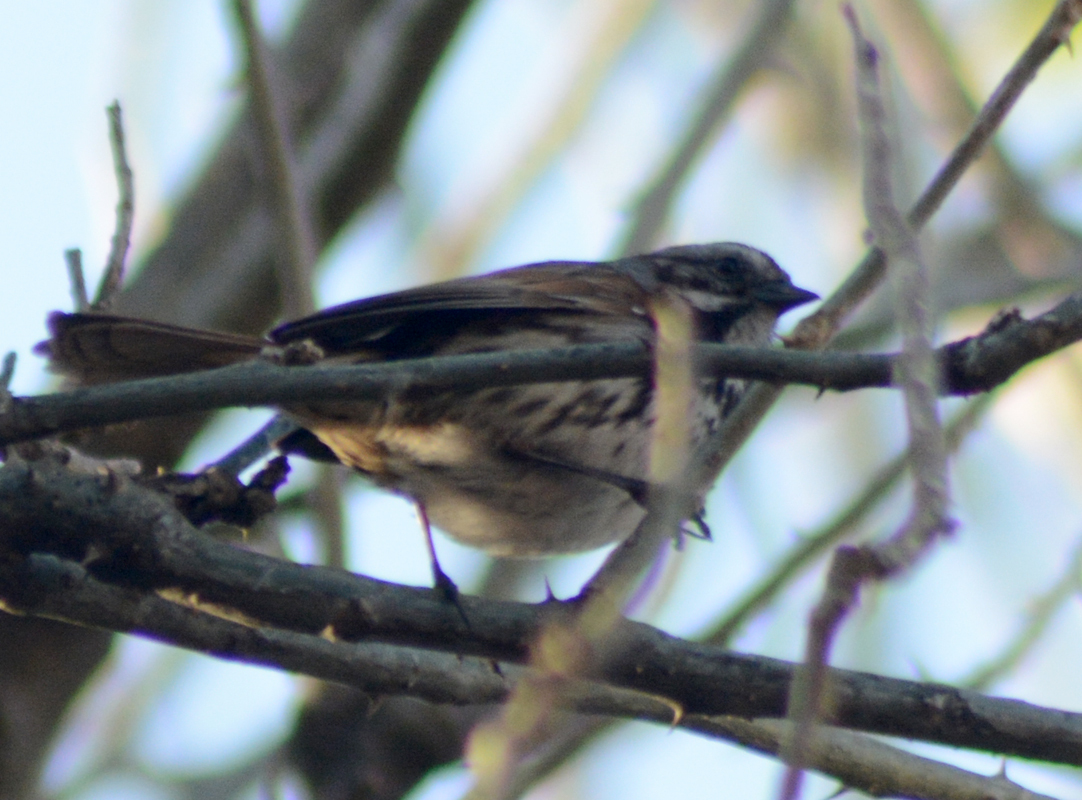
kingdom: Animalia
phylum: Chordata
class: Aves
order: Passeriformes
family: Passerellidae
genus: Melospiza
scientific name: Melospiza melodia
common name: Song sparrow
